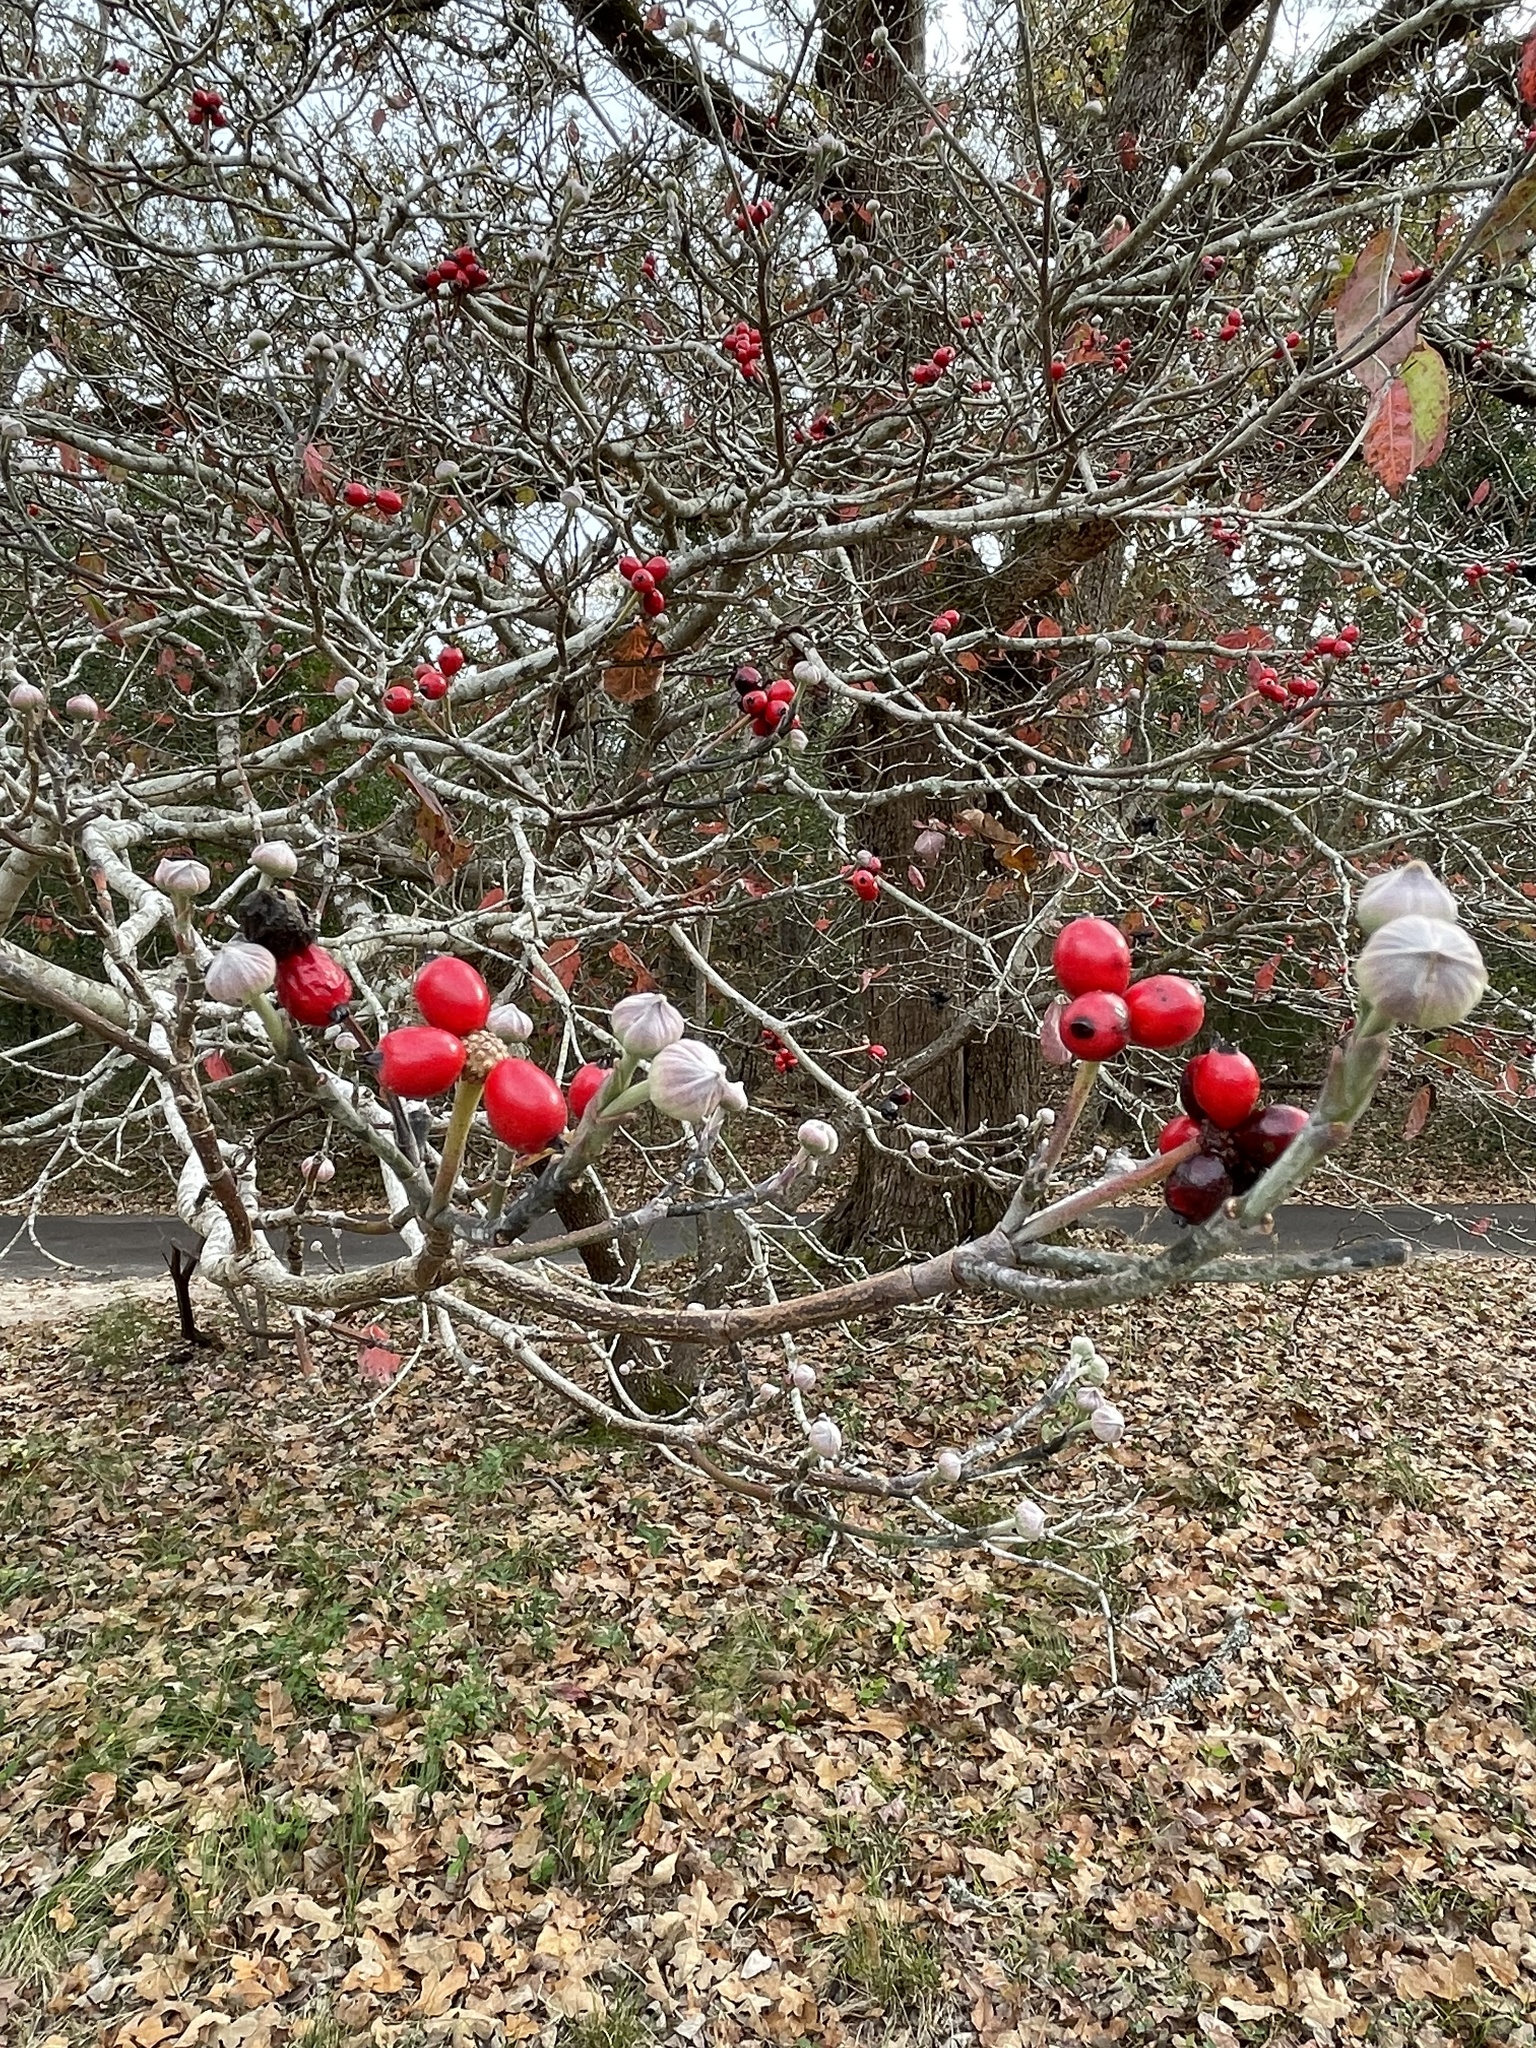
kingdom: Plantae
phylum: Tracheophyta
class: Magnoliopsida
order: Cornales
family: Cornaceae
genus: Cornus
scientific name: Cornus florida
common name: Flowering dogwood
